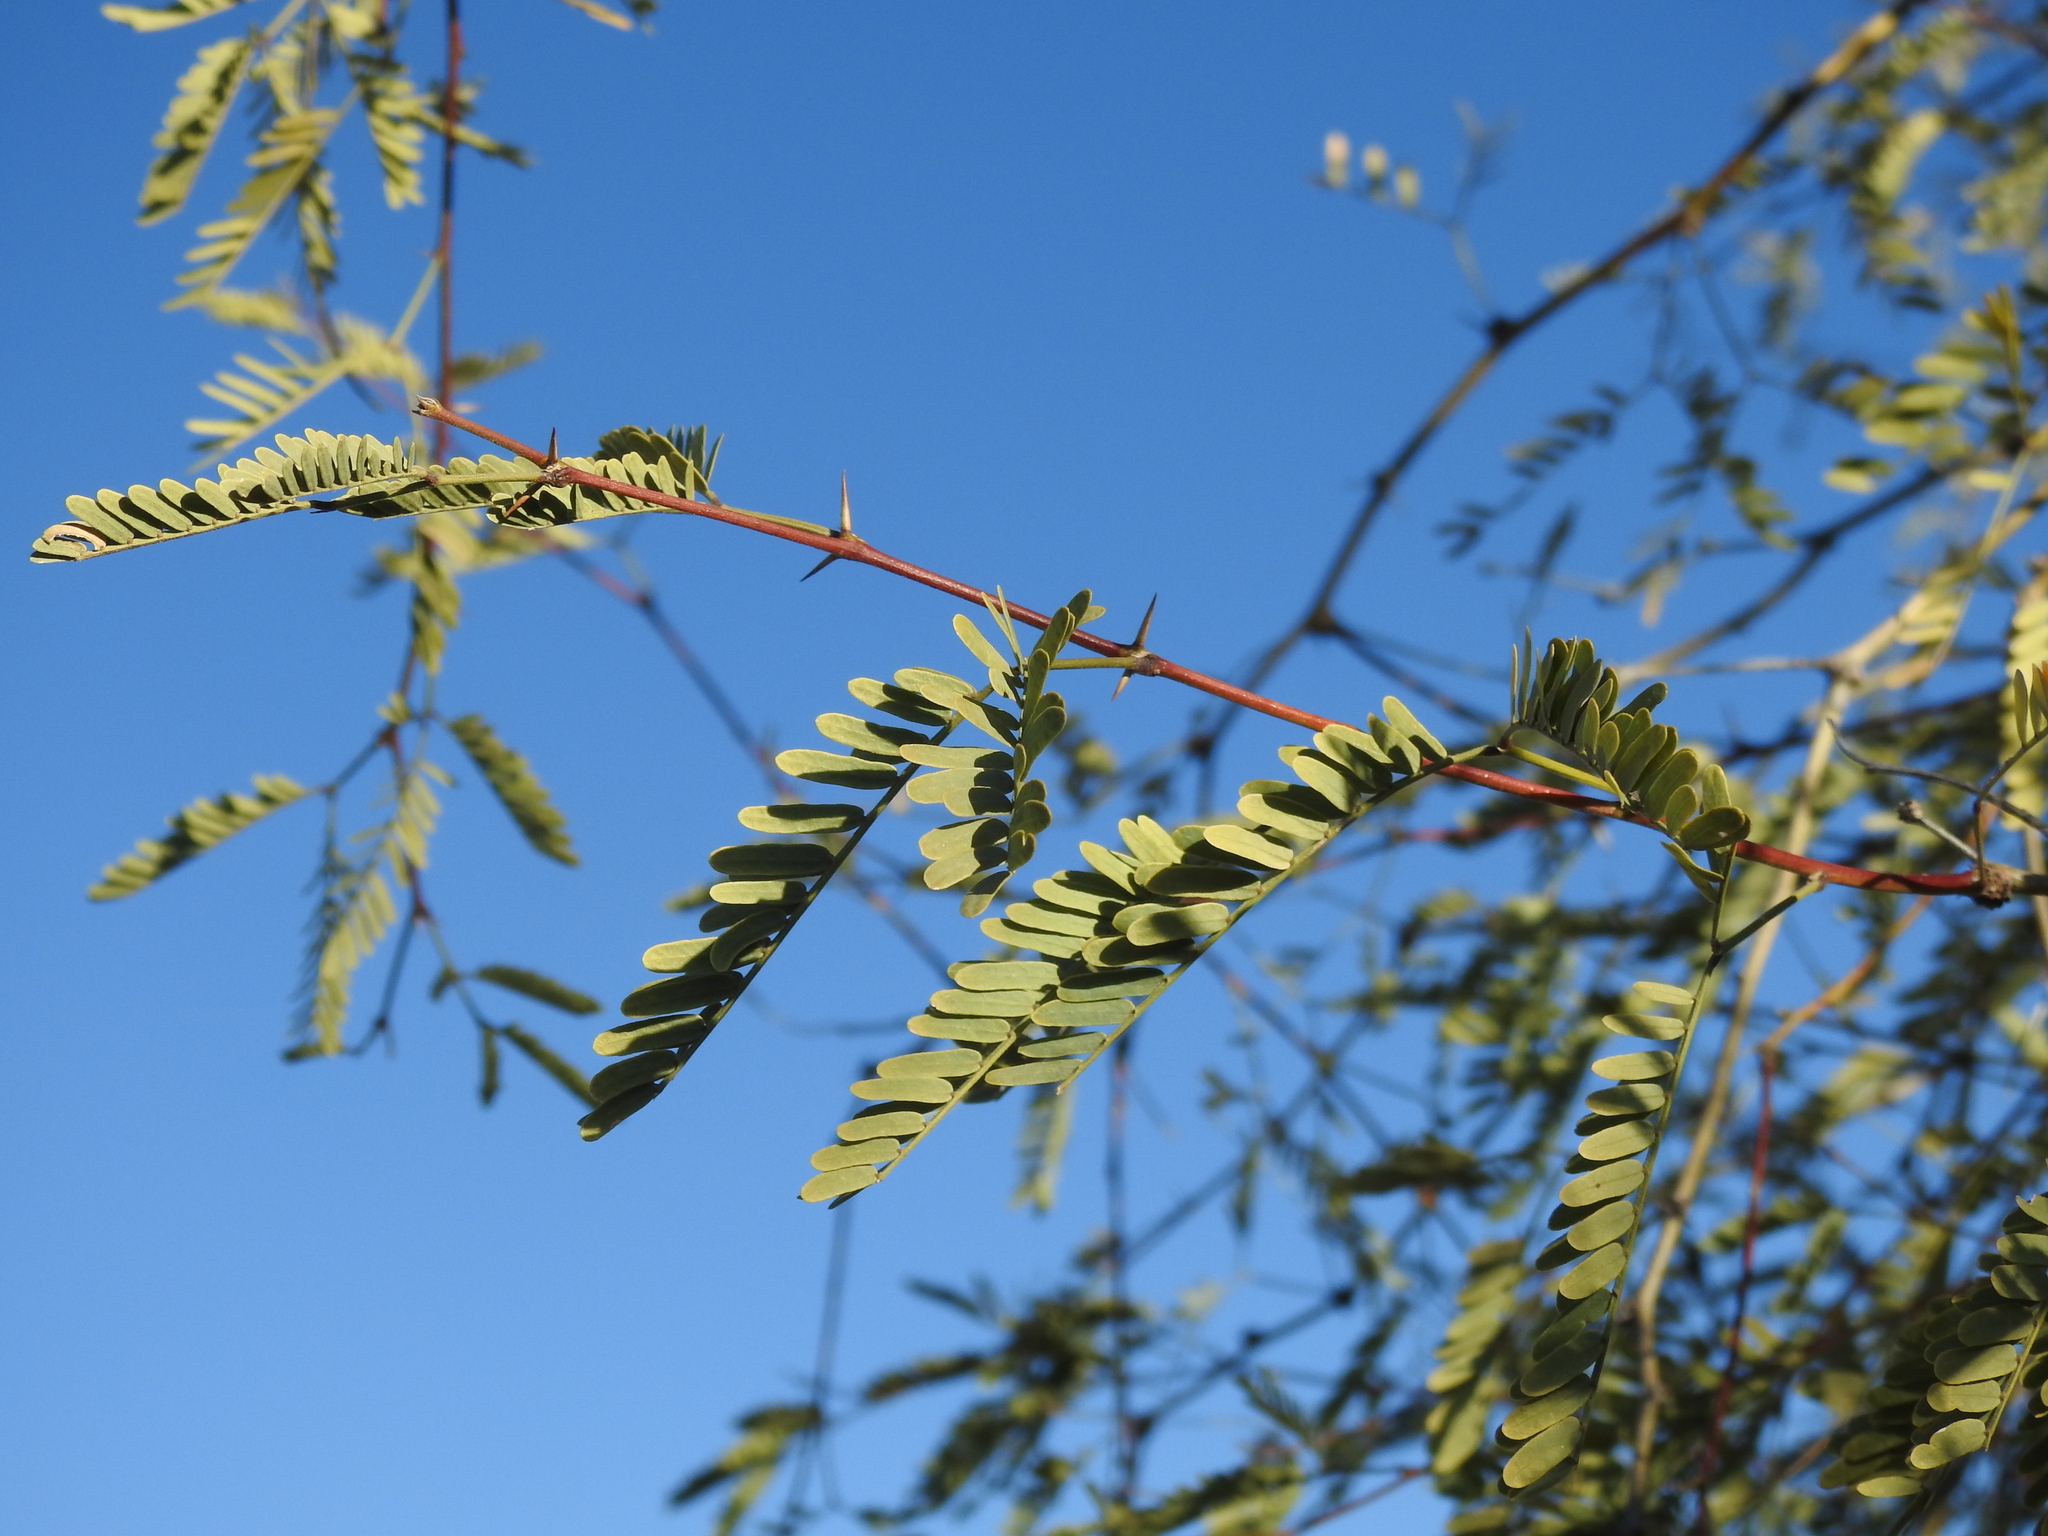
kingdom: Plantae
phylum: Tracheophyta
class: Magnoliopsida
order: Fabales
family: Fabaceae
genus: Prosopis
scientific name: Prosopis velutina
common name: Velvet mesquite
